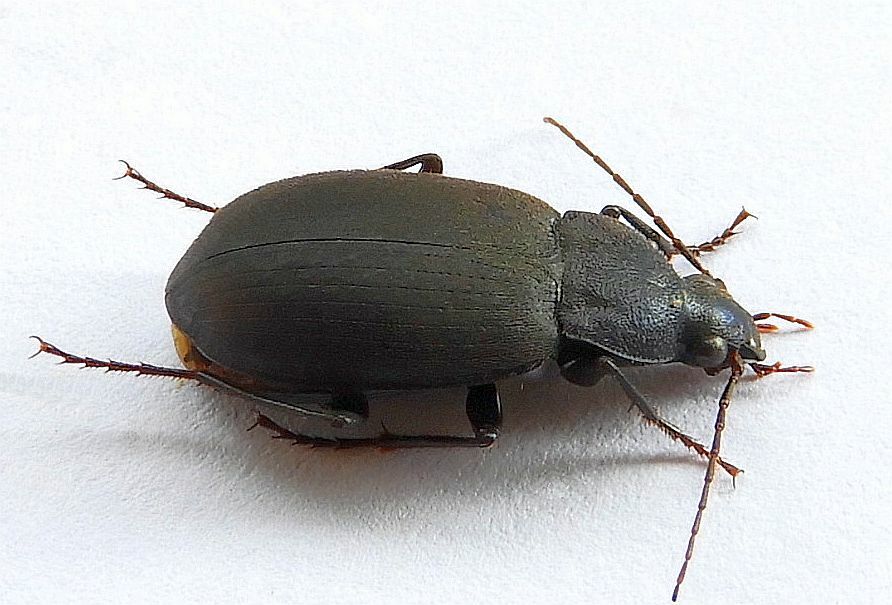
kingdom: Animalia
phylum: Arthropoda
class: Insecta
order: Coleoptera
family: Carabidae
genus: Chlaenius
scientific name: Chlaenius orbus
